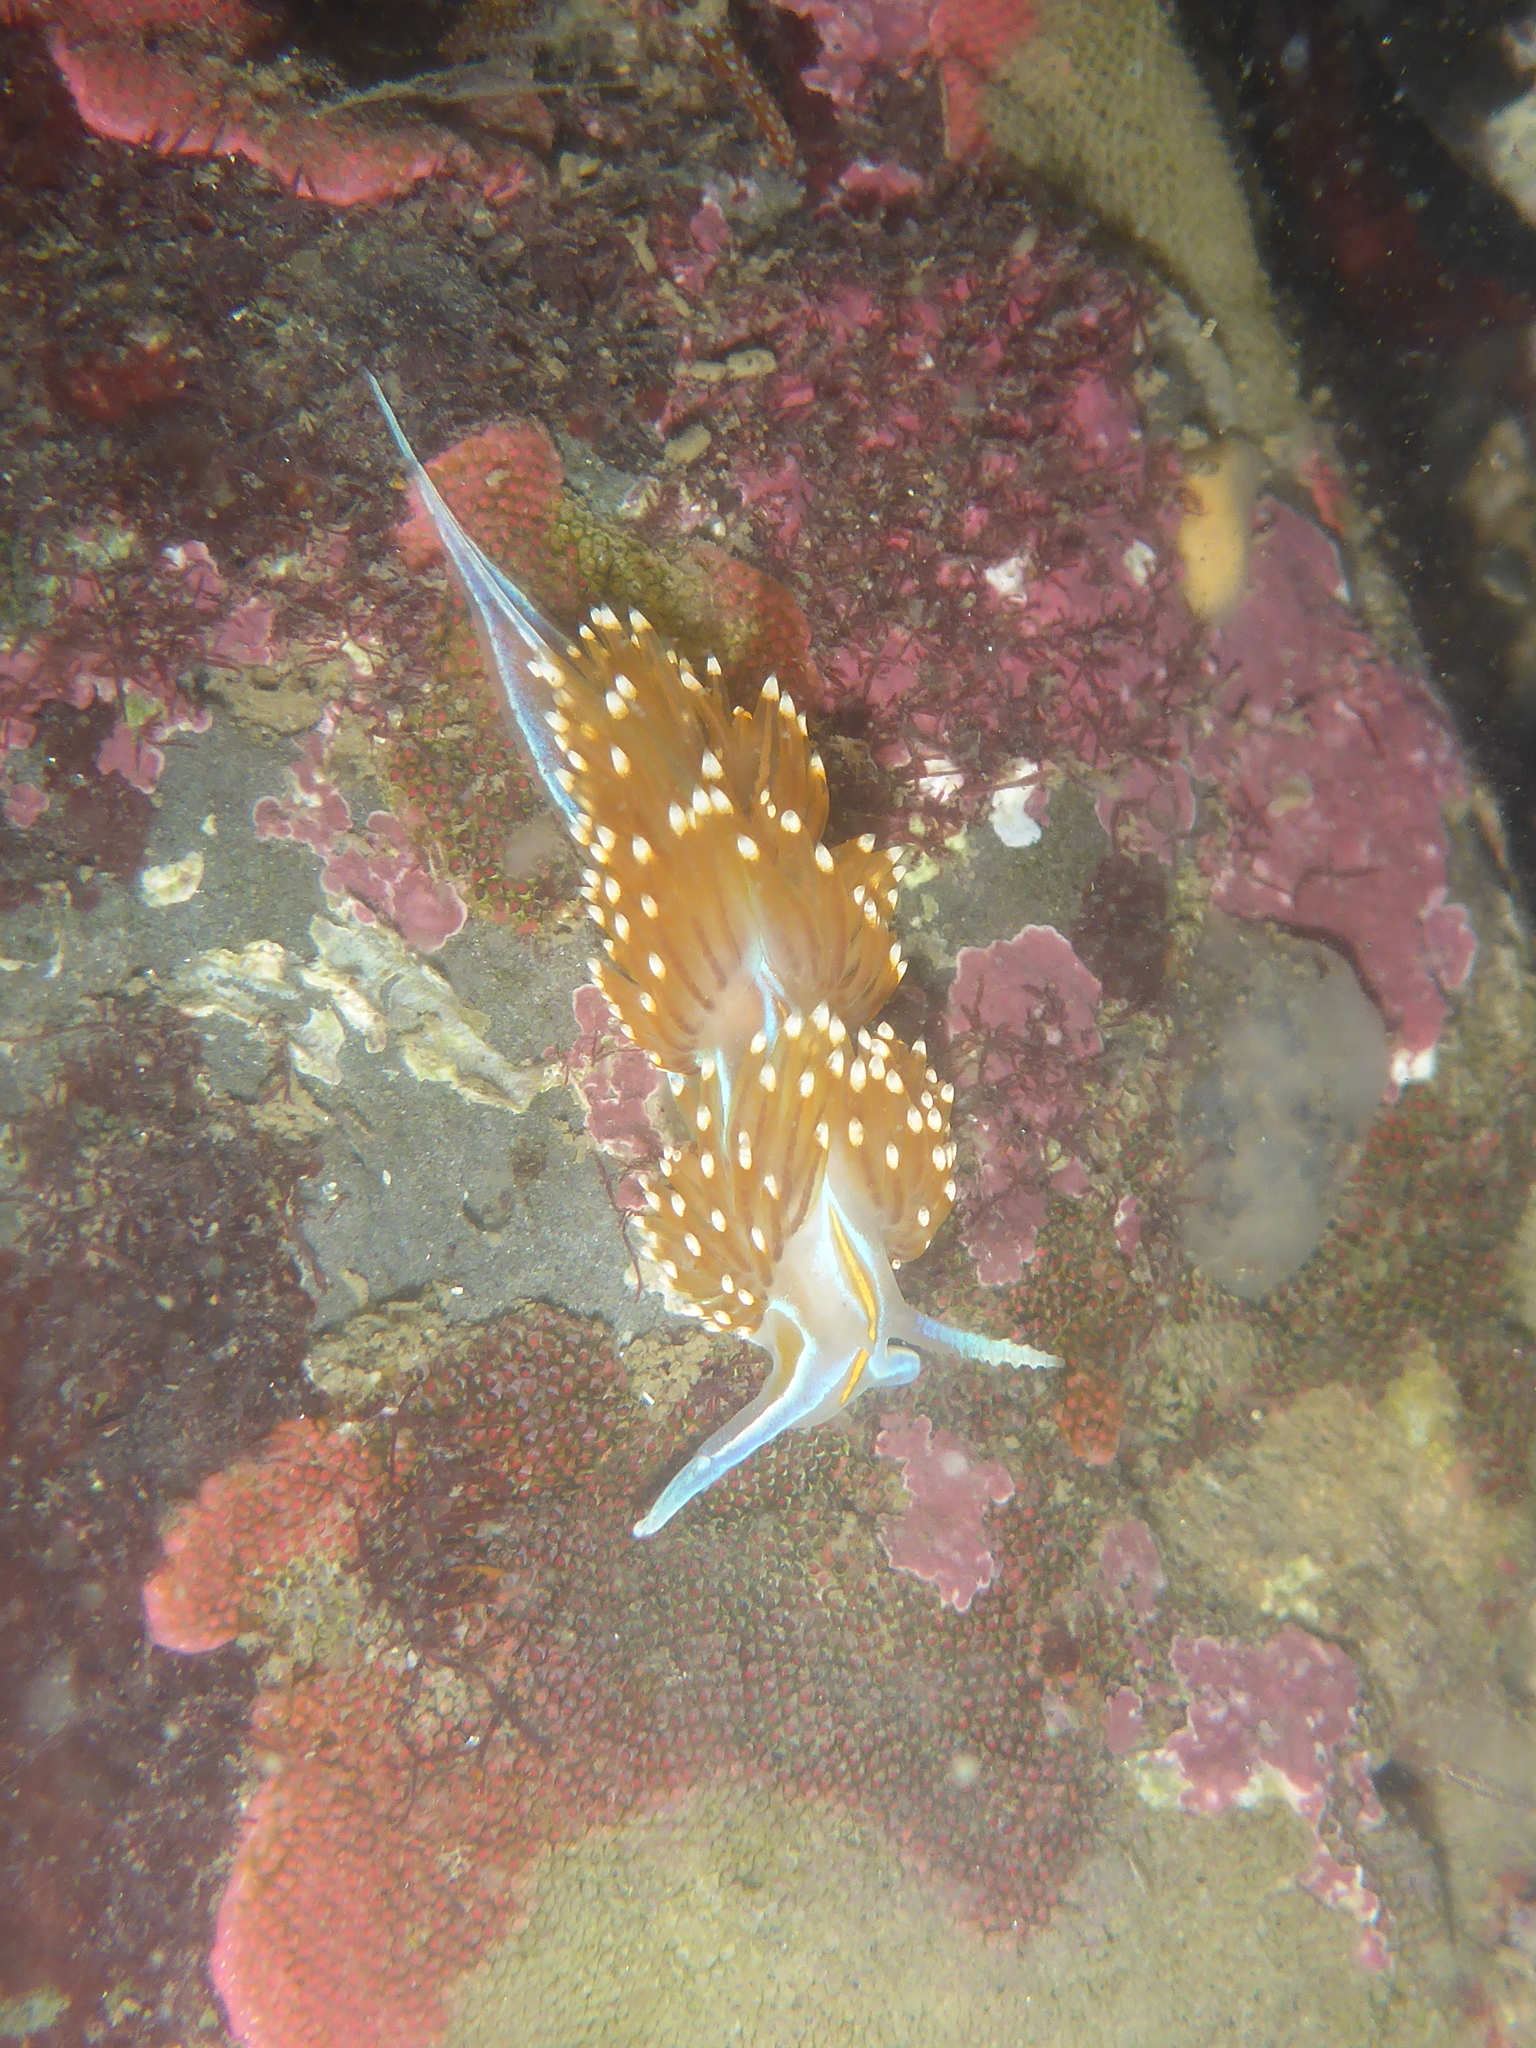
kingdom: Animalia
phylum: Mollusca
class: Gastropoda
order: Nudibranchia
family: Myrrhinidae
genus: Hermissenda
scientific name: Hermissenda opalescens
